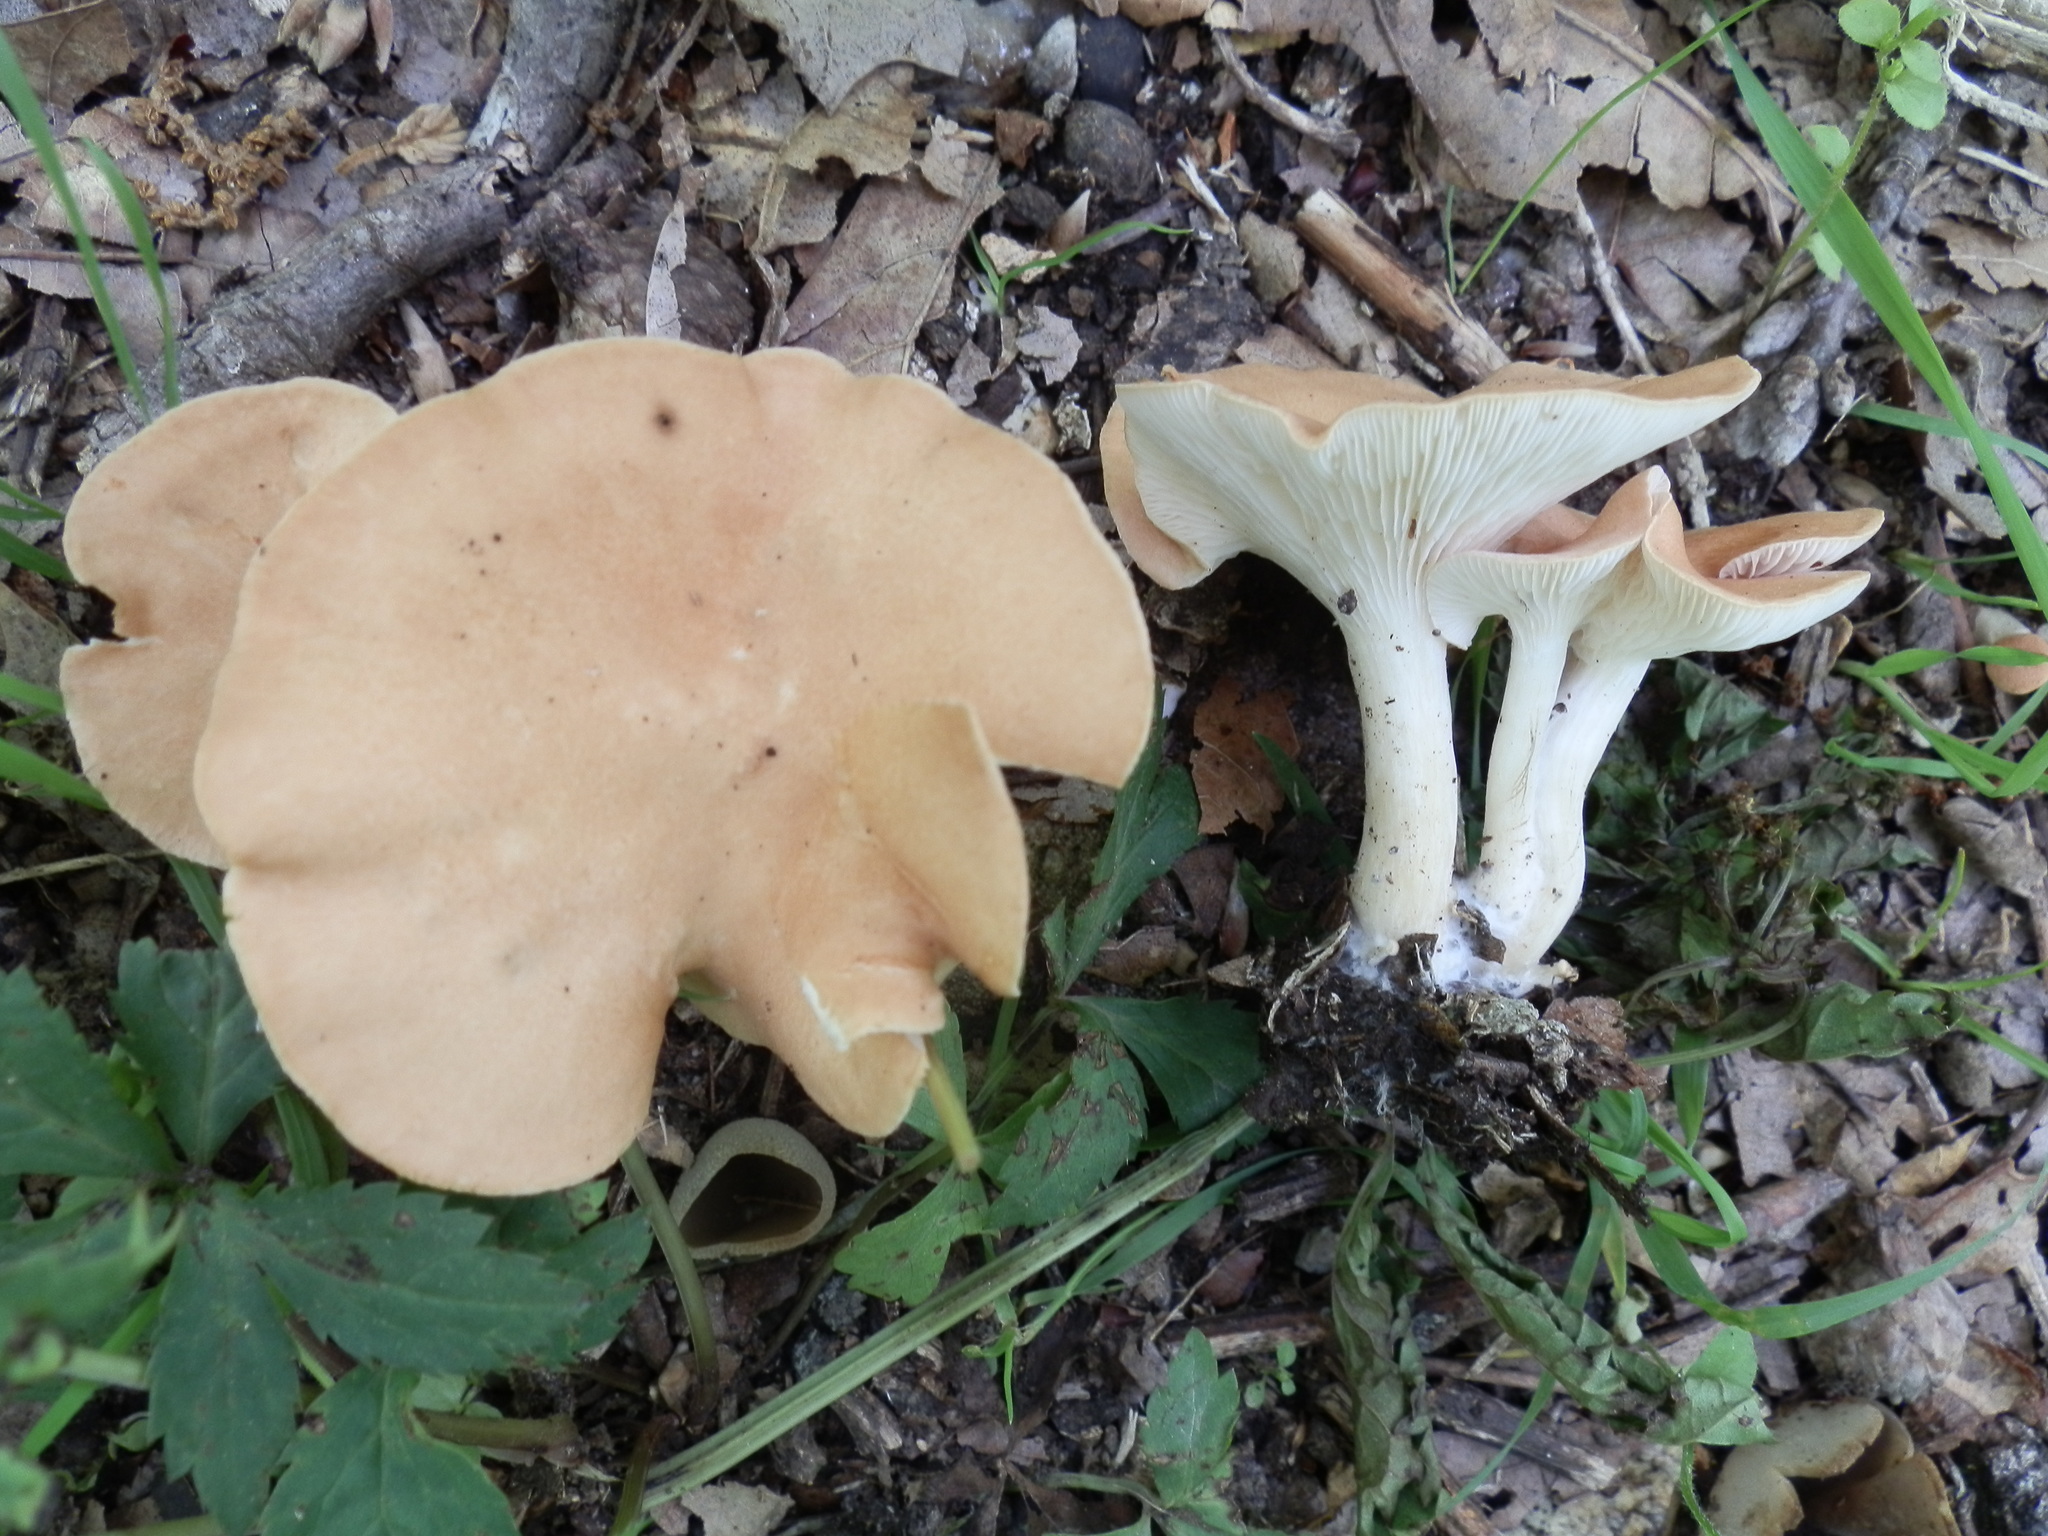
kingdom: Fungi
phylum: Basidiomycota
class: Agaricomycetes
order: Agaricales
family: Tricholomataceae
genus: Infundibulicybe
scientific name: Infundibulicybe gibba
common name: Common funnel
